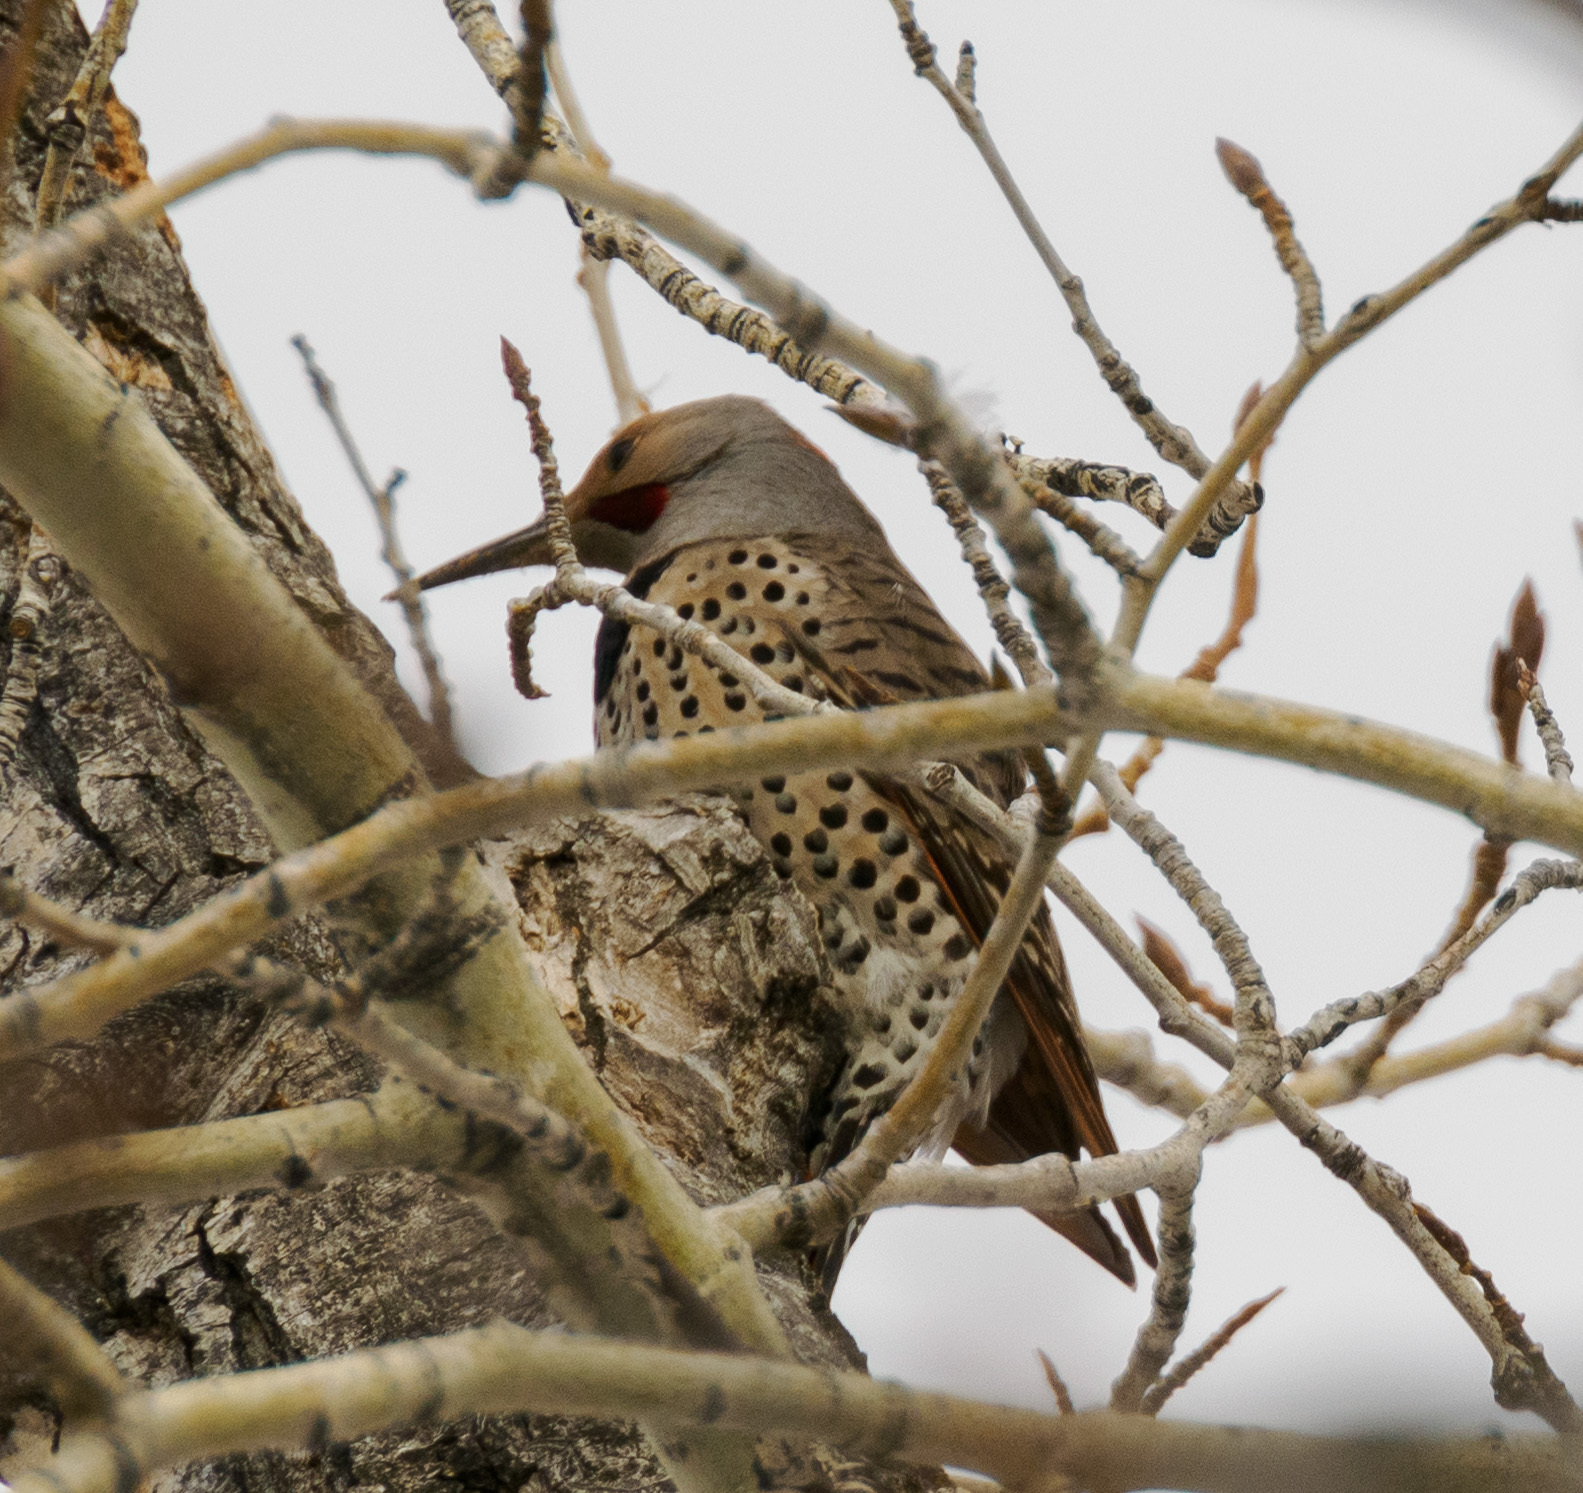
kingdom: Animalia
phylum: Chordata
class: Aves
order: Piciformes
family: Picidae
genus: Colaptes
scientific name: Colaptes auratus
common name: Northern flicker
